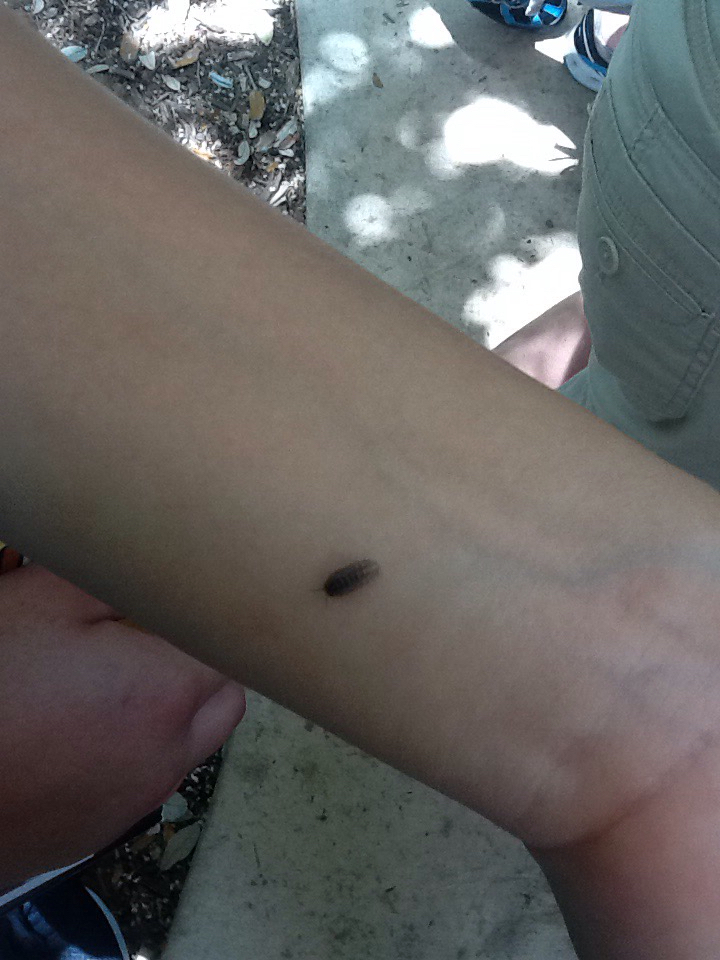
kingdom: Animalia
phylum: Arthropoda
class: Malacostraca
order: Isopoda
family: Armadillidiidae
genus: Armadillidium
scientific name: Armadillidium vulgare
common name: Common pill woodlouse
